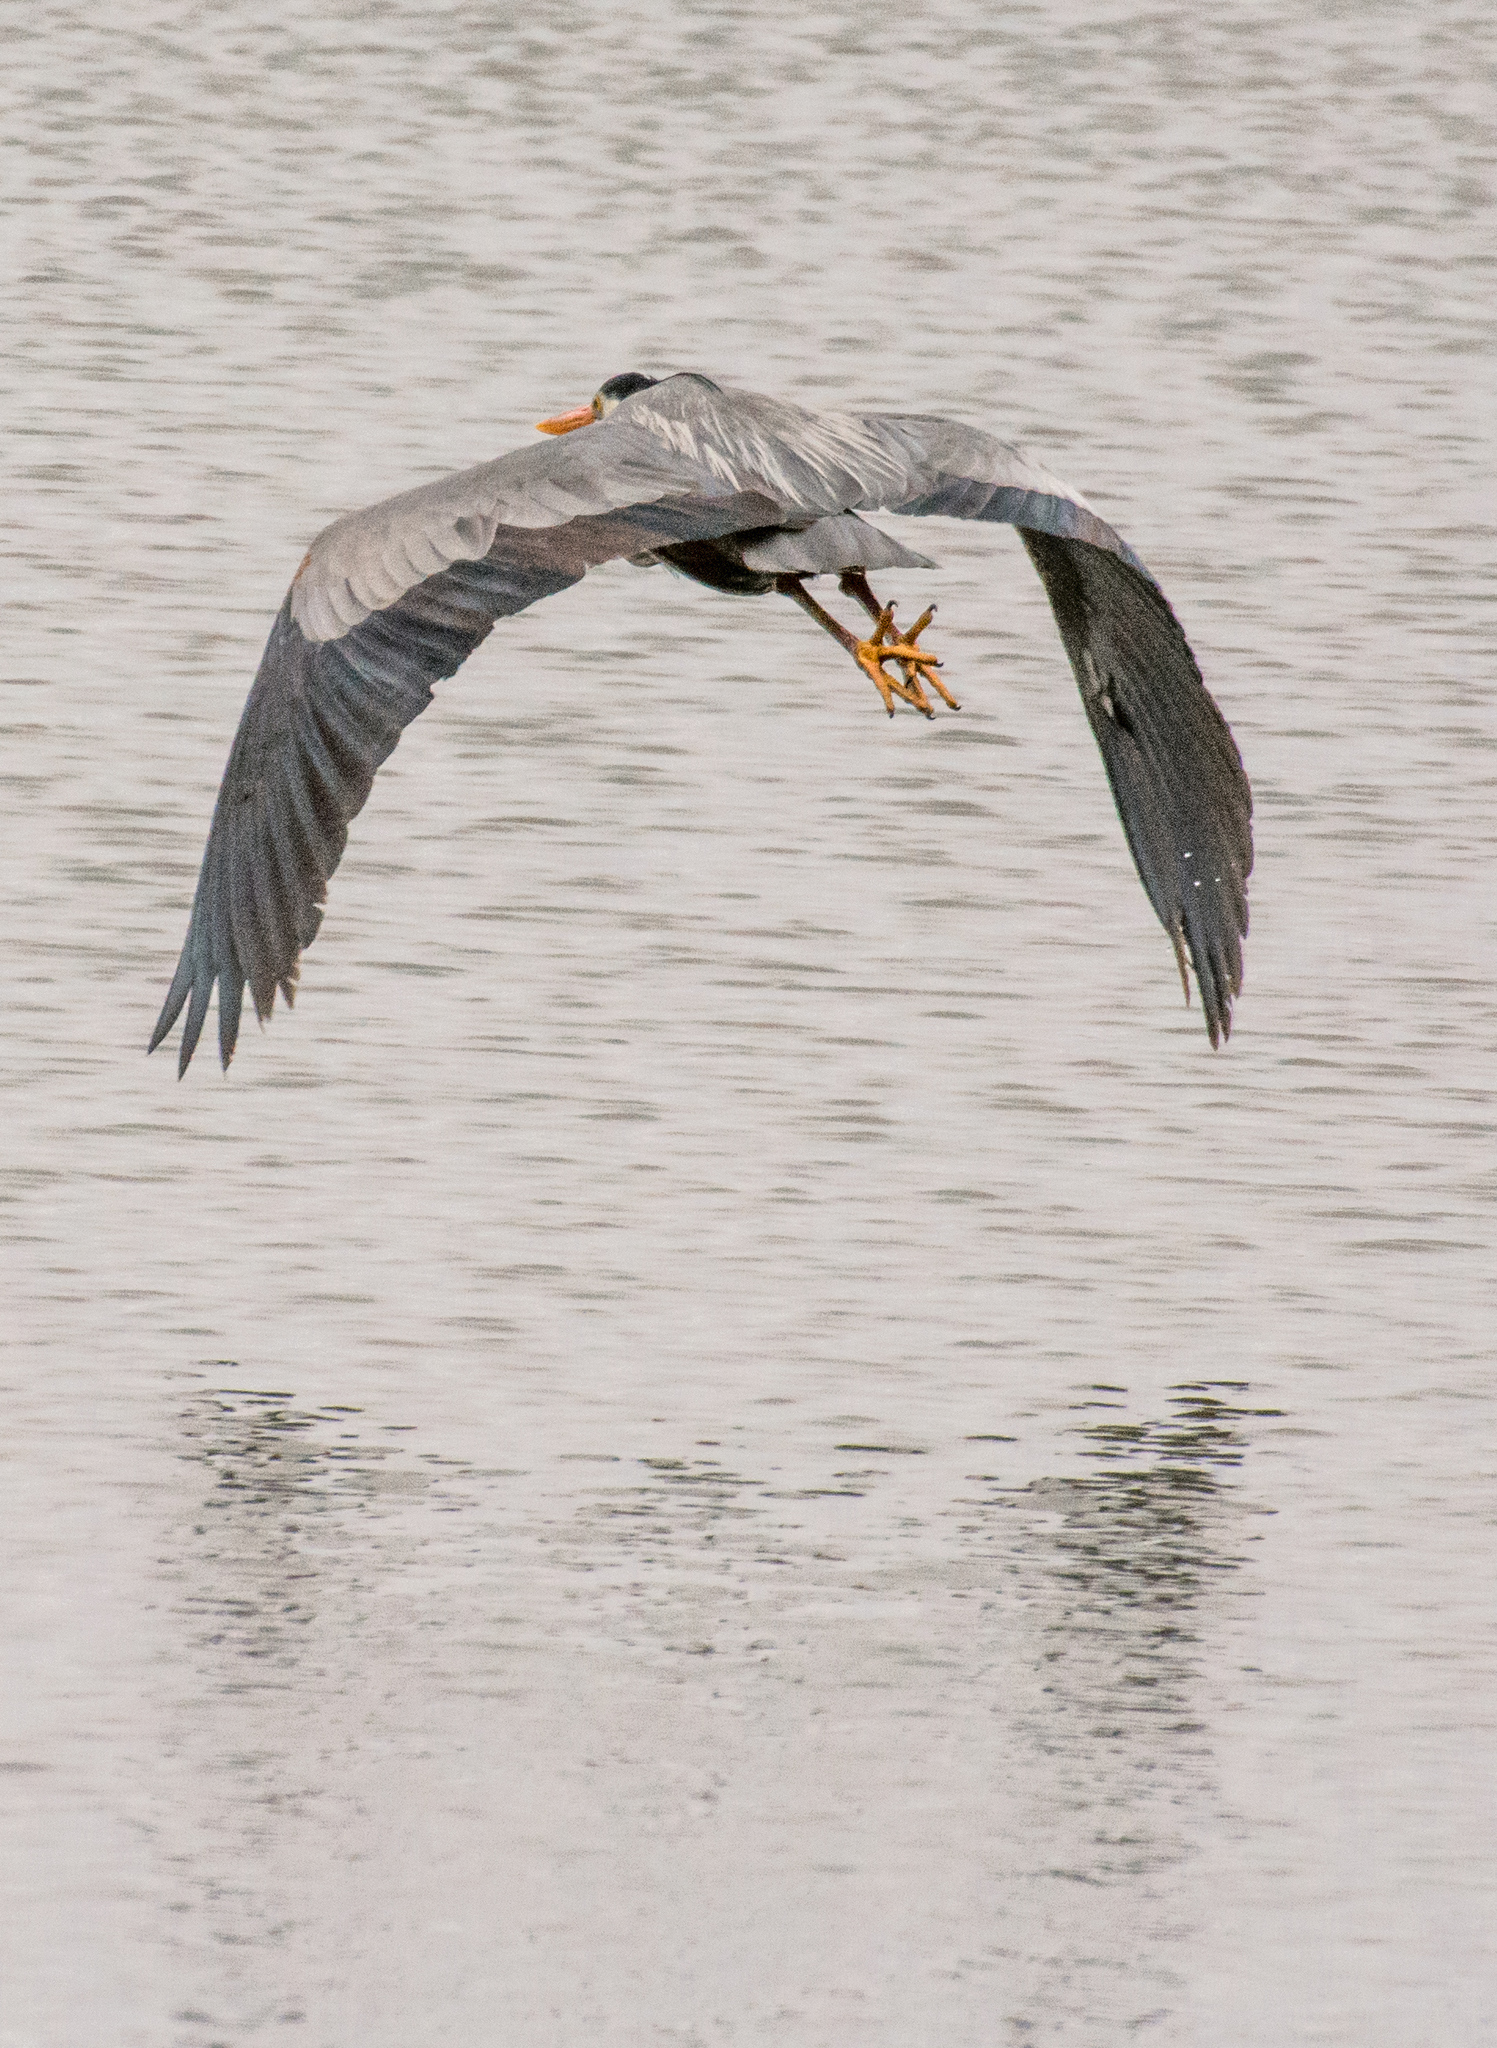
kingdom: Animalia
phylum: Chordata
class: Aves
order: Pelecaniformes
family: Ardeidae
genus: Ardea
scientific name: Ardea herodias
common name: Great blue heron
